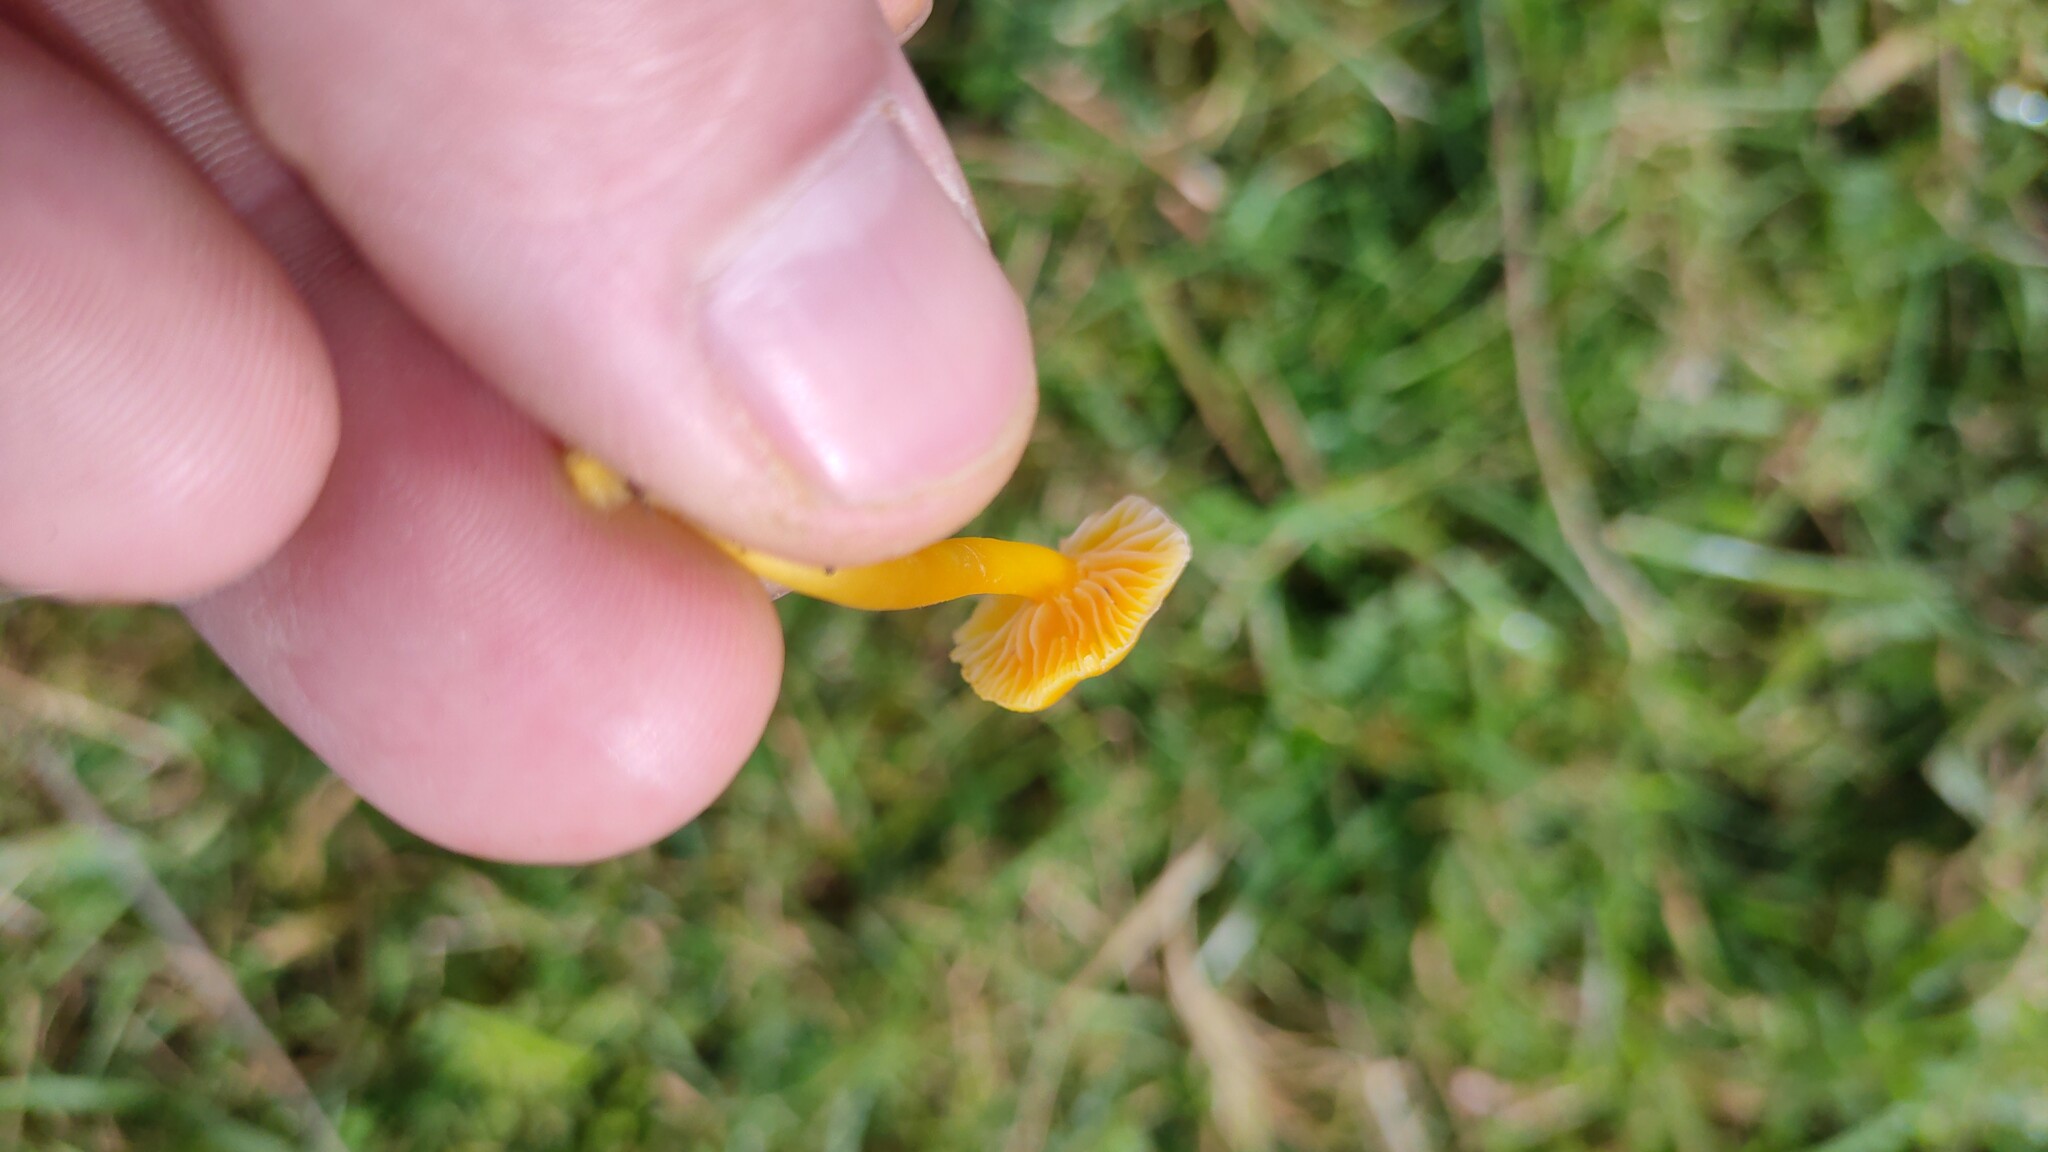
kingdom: Fungi
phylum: Basidiomycota
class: Agaricomycetes
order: Agaricales
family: Hygrophoraceae
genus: Hygrocybe
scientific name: Hygrocybe ceracea
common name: Butter waxcap
